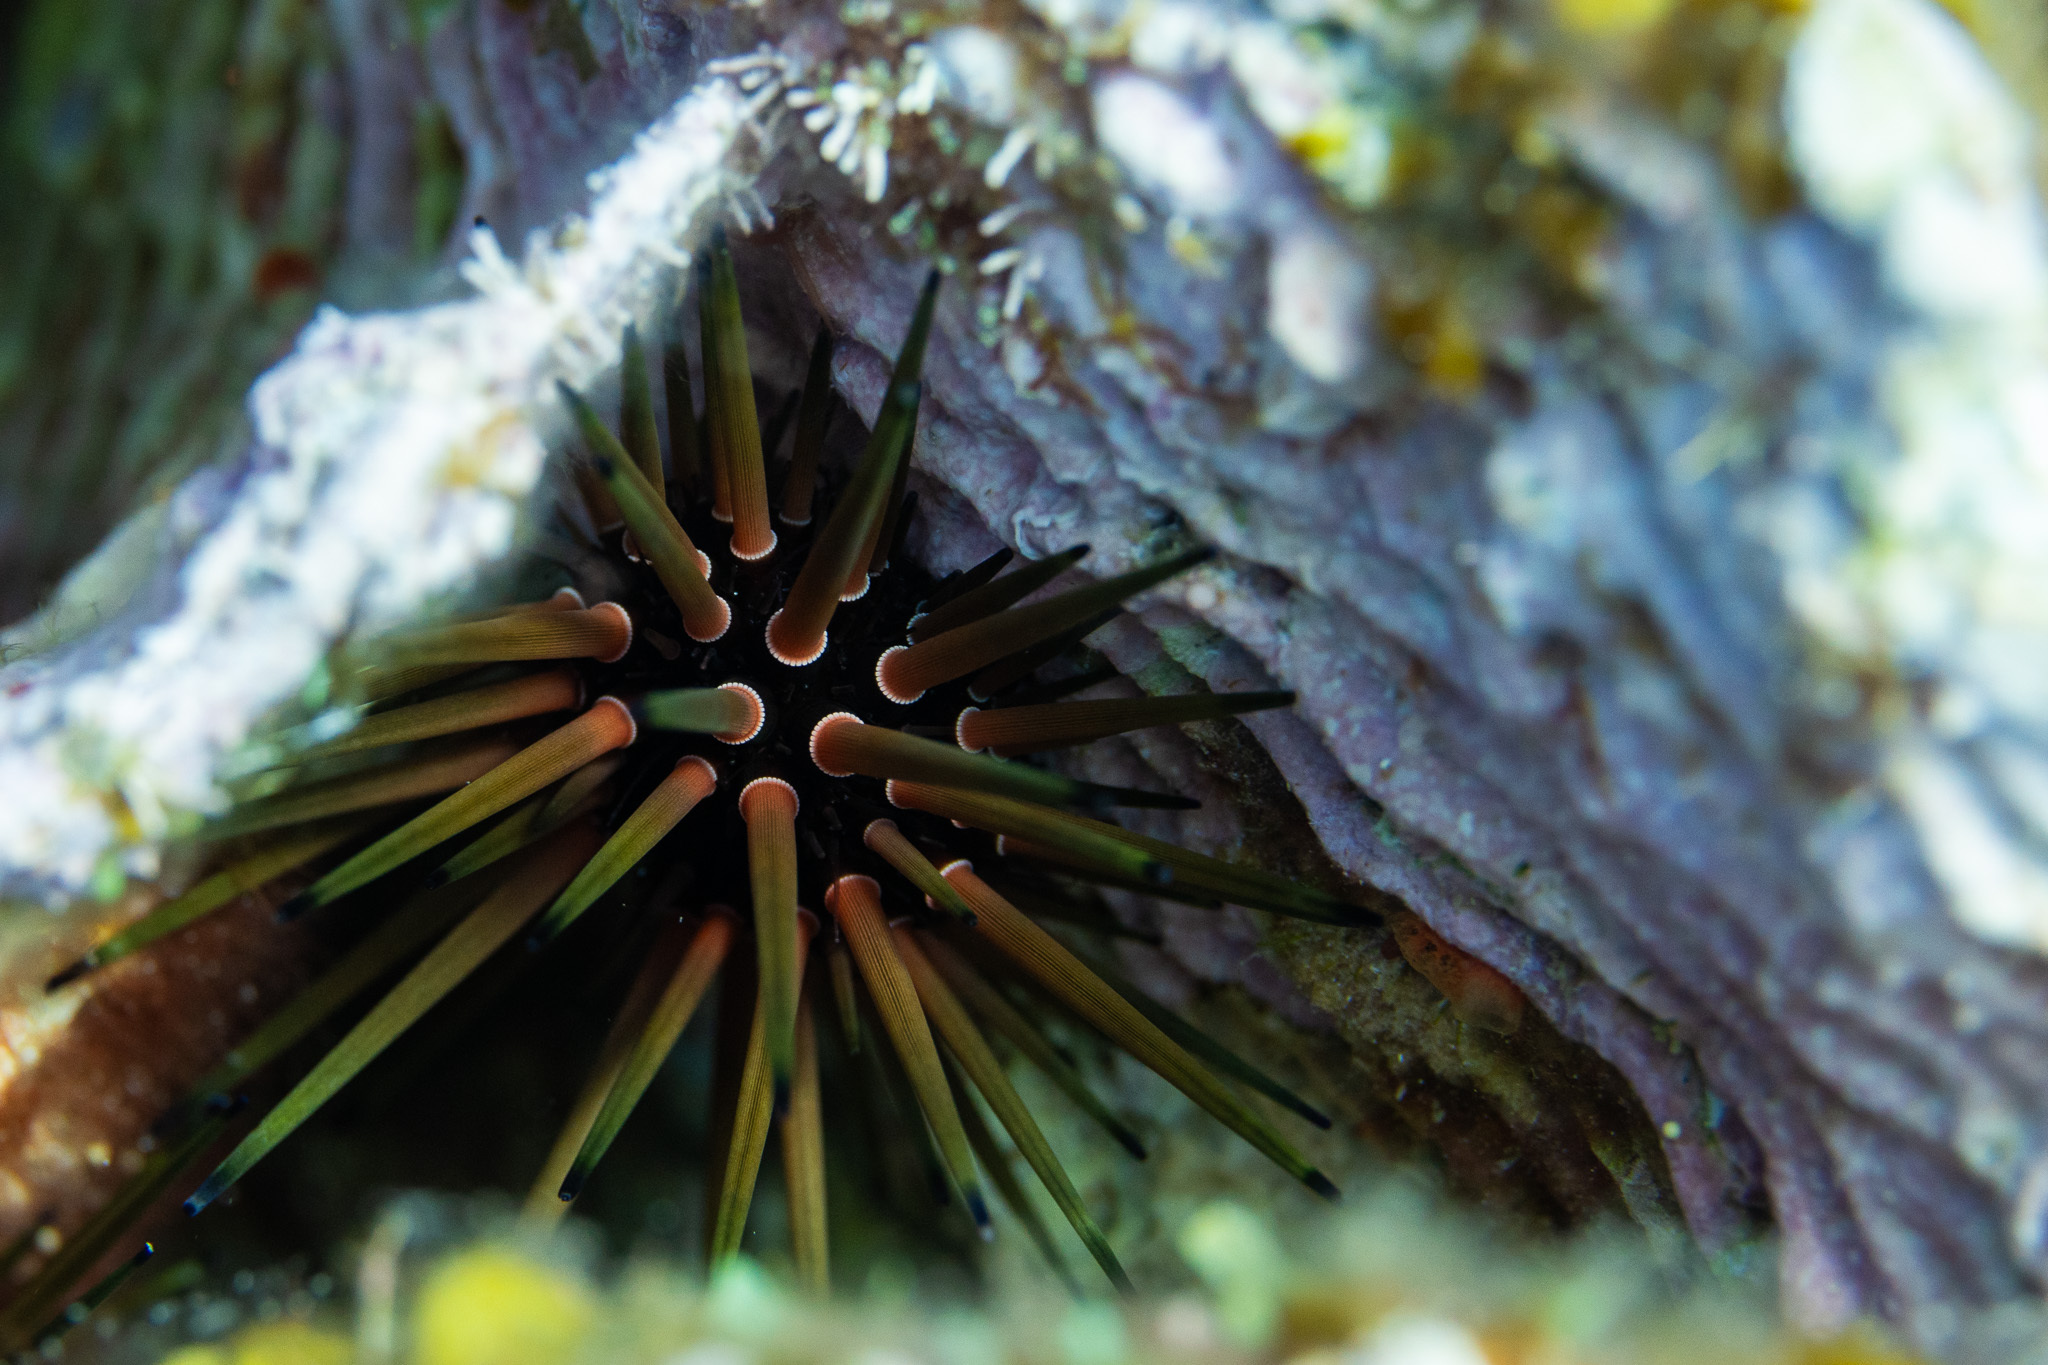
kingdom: Animalia
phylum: Echinodermata
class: Echinoidea
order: Camarodonta
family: Echinometridae
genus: Echinometra
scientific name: Echinometra viridis
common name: Reef urchin
